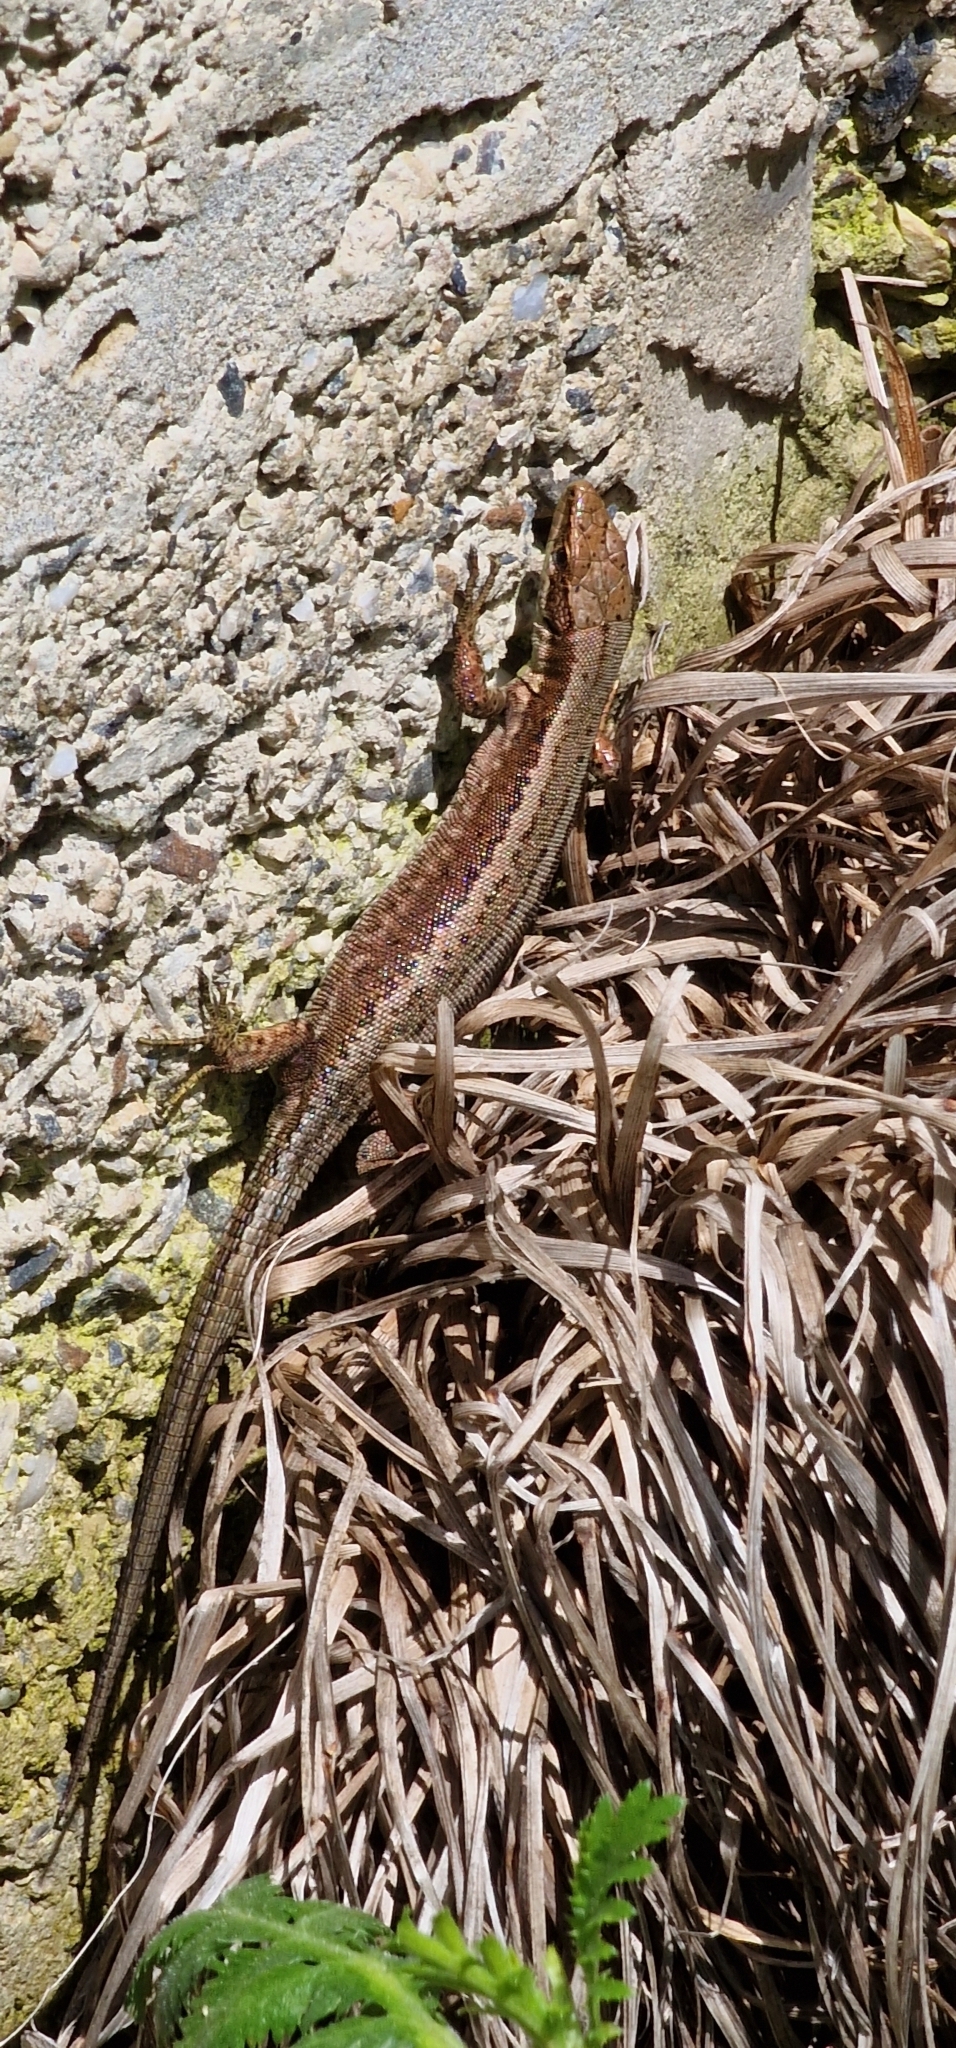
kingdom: Animalia
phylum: Chordata
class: Squamata
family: Lacertidae
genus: Darevskia
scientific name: Darevskia praticola
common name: Meadow lizard
